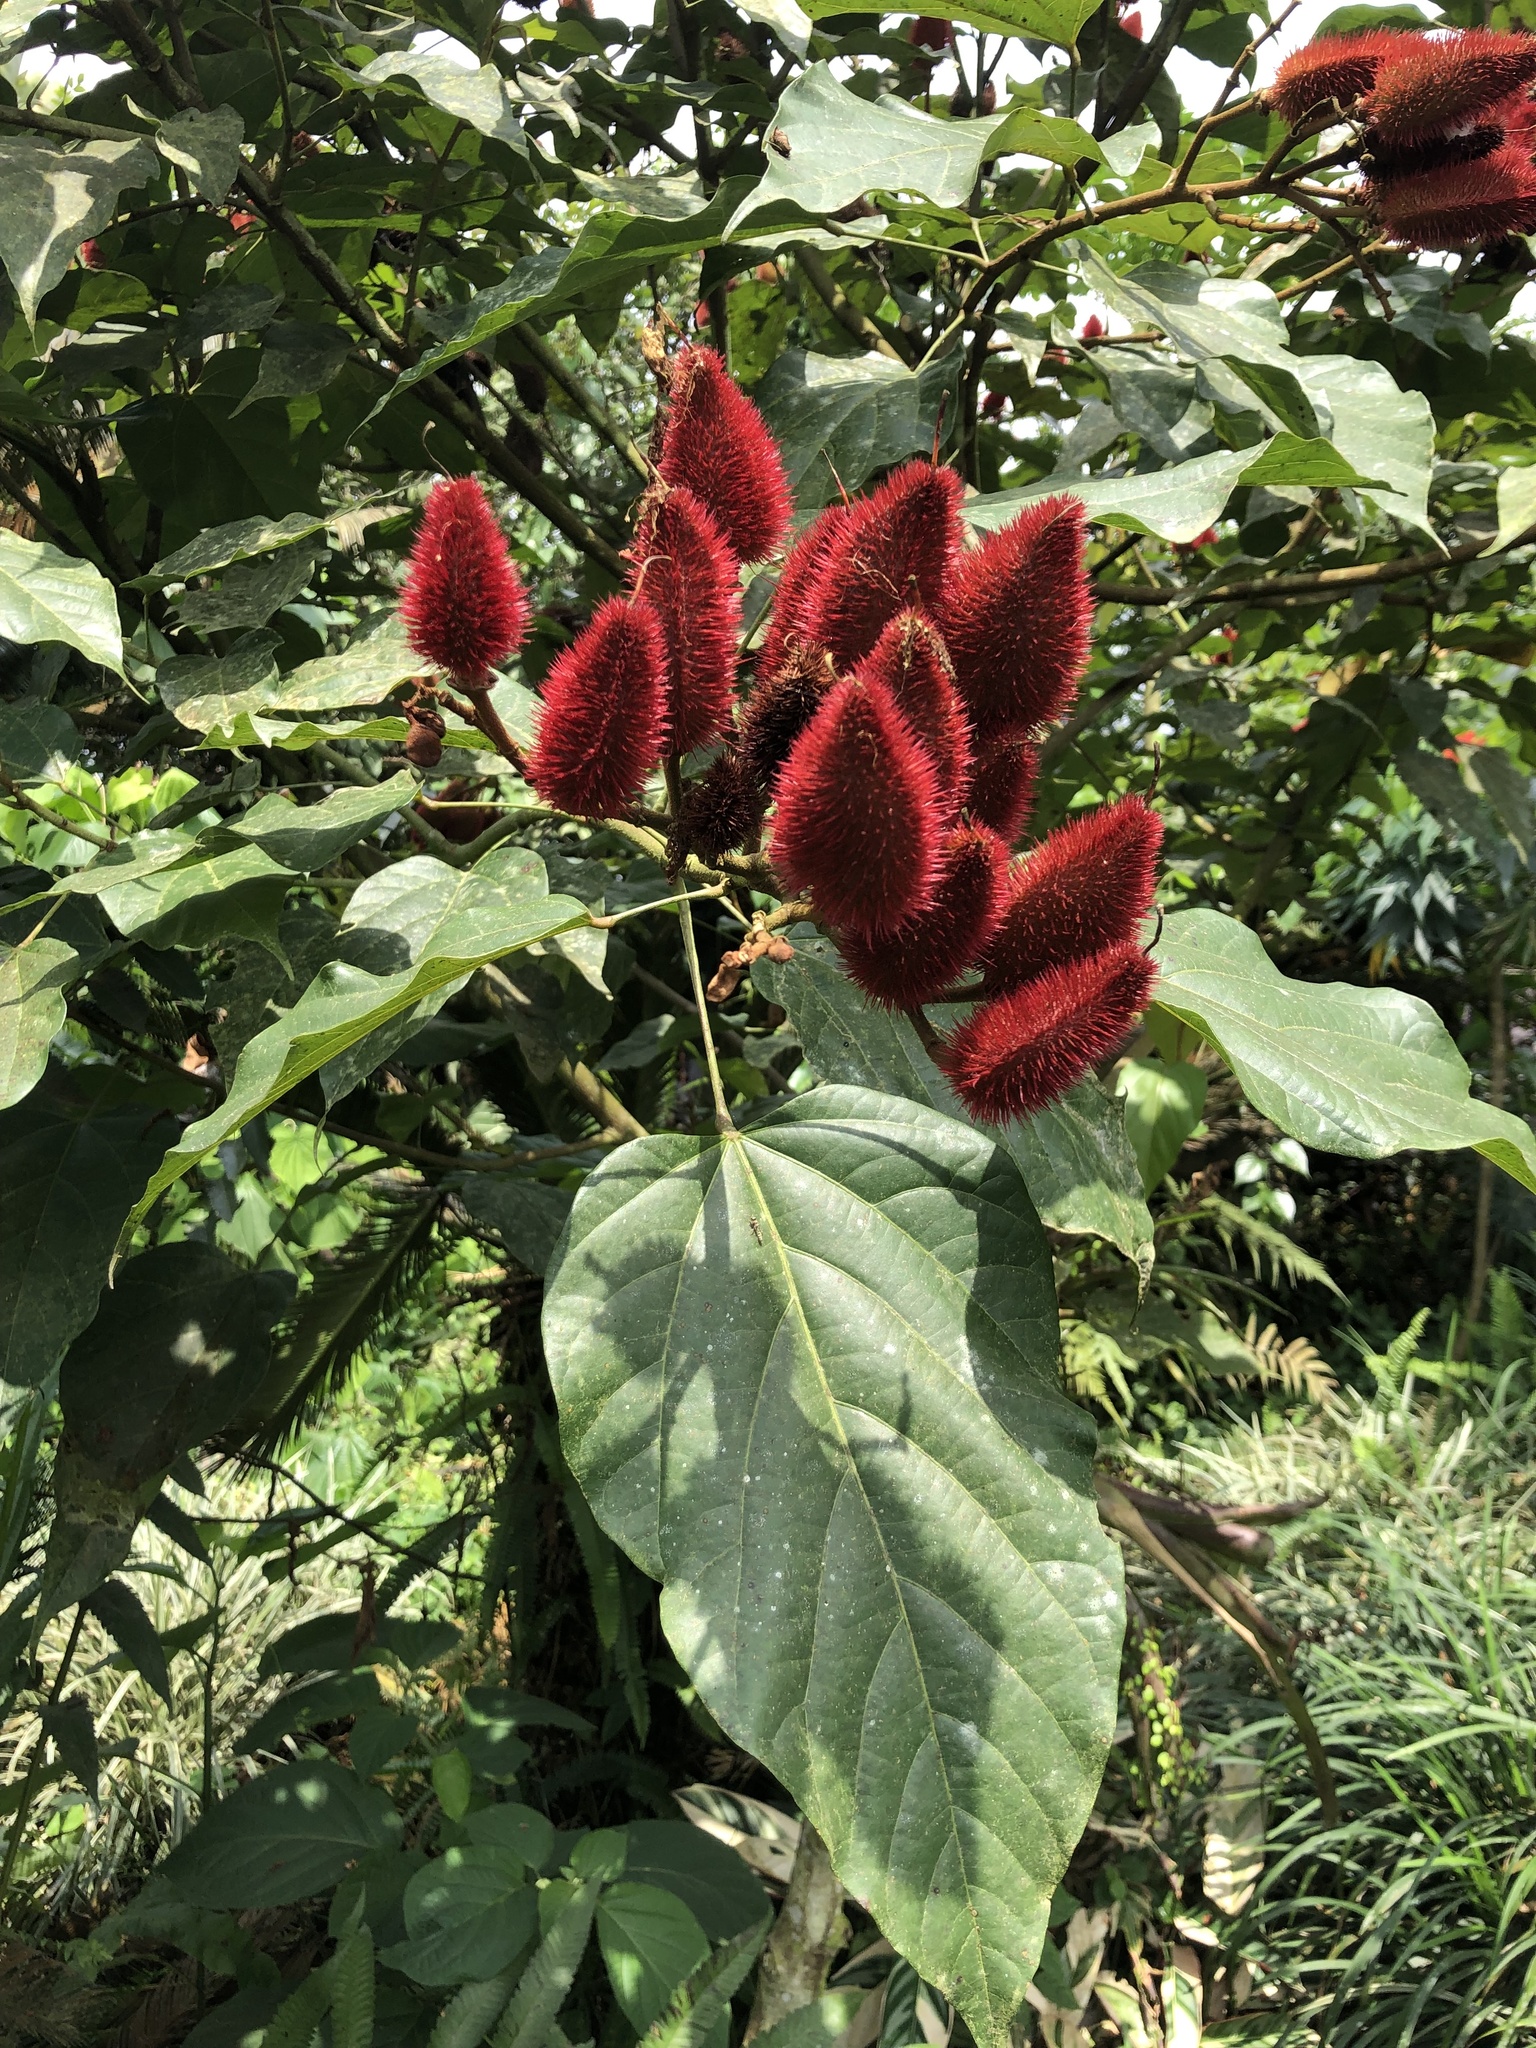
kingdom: Plantae
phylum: Tracheophyta
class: Magnoliopsida
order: Malvales
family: Bixaceae
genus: Bixa
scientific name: Bixa orellana
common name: Lipsticktree
